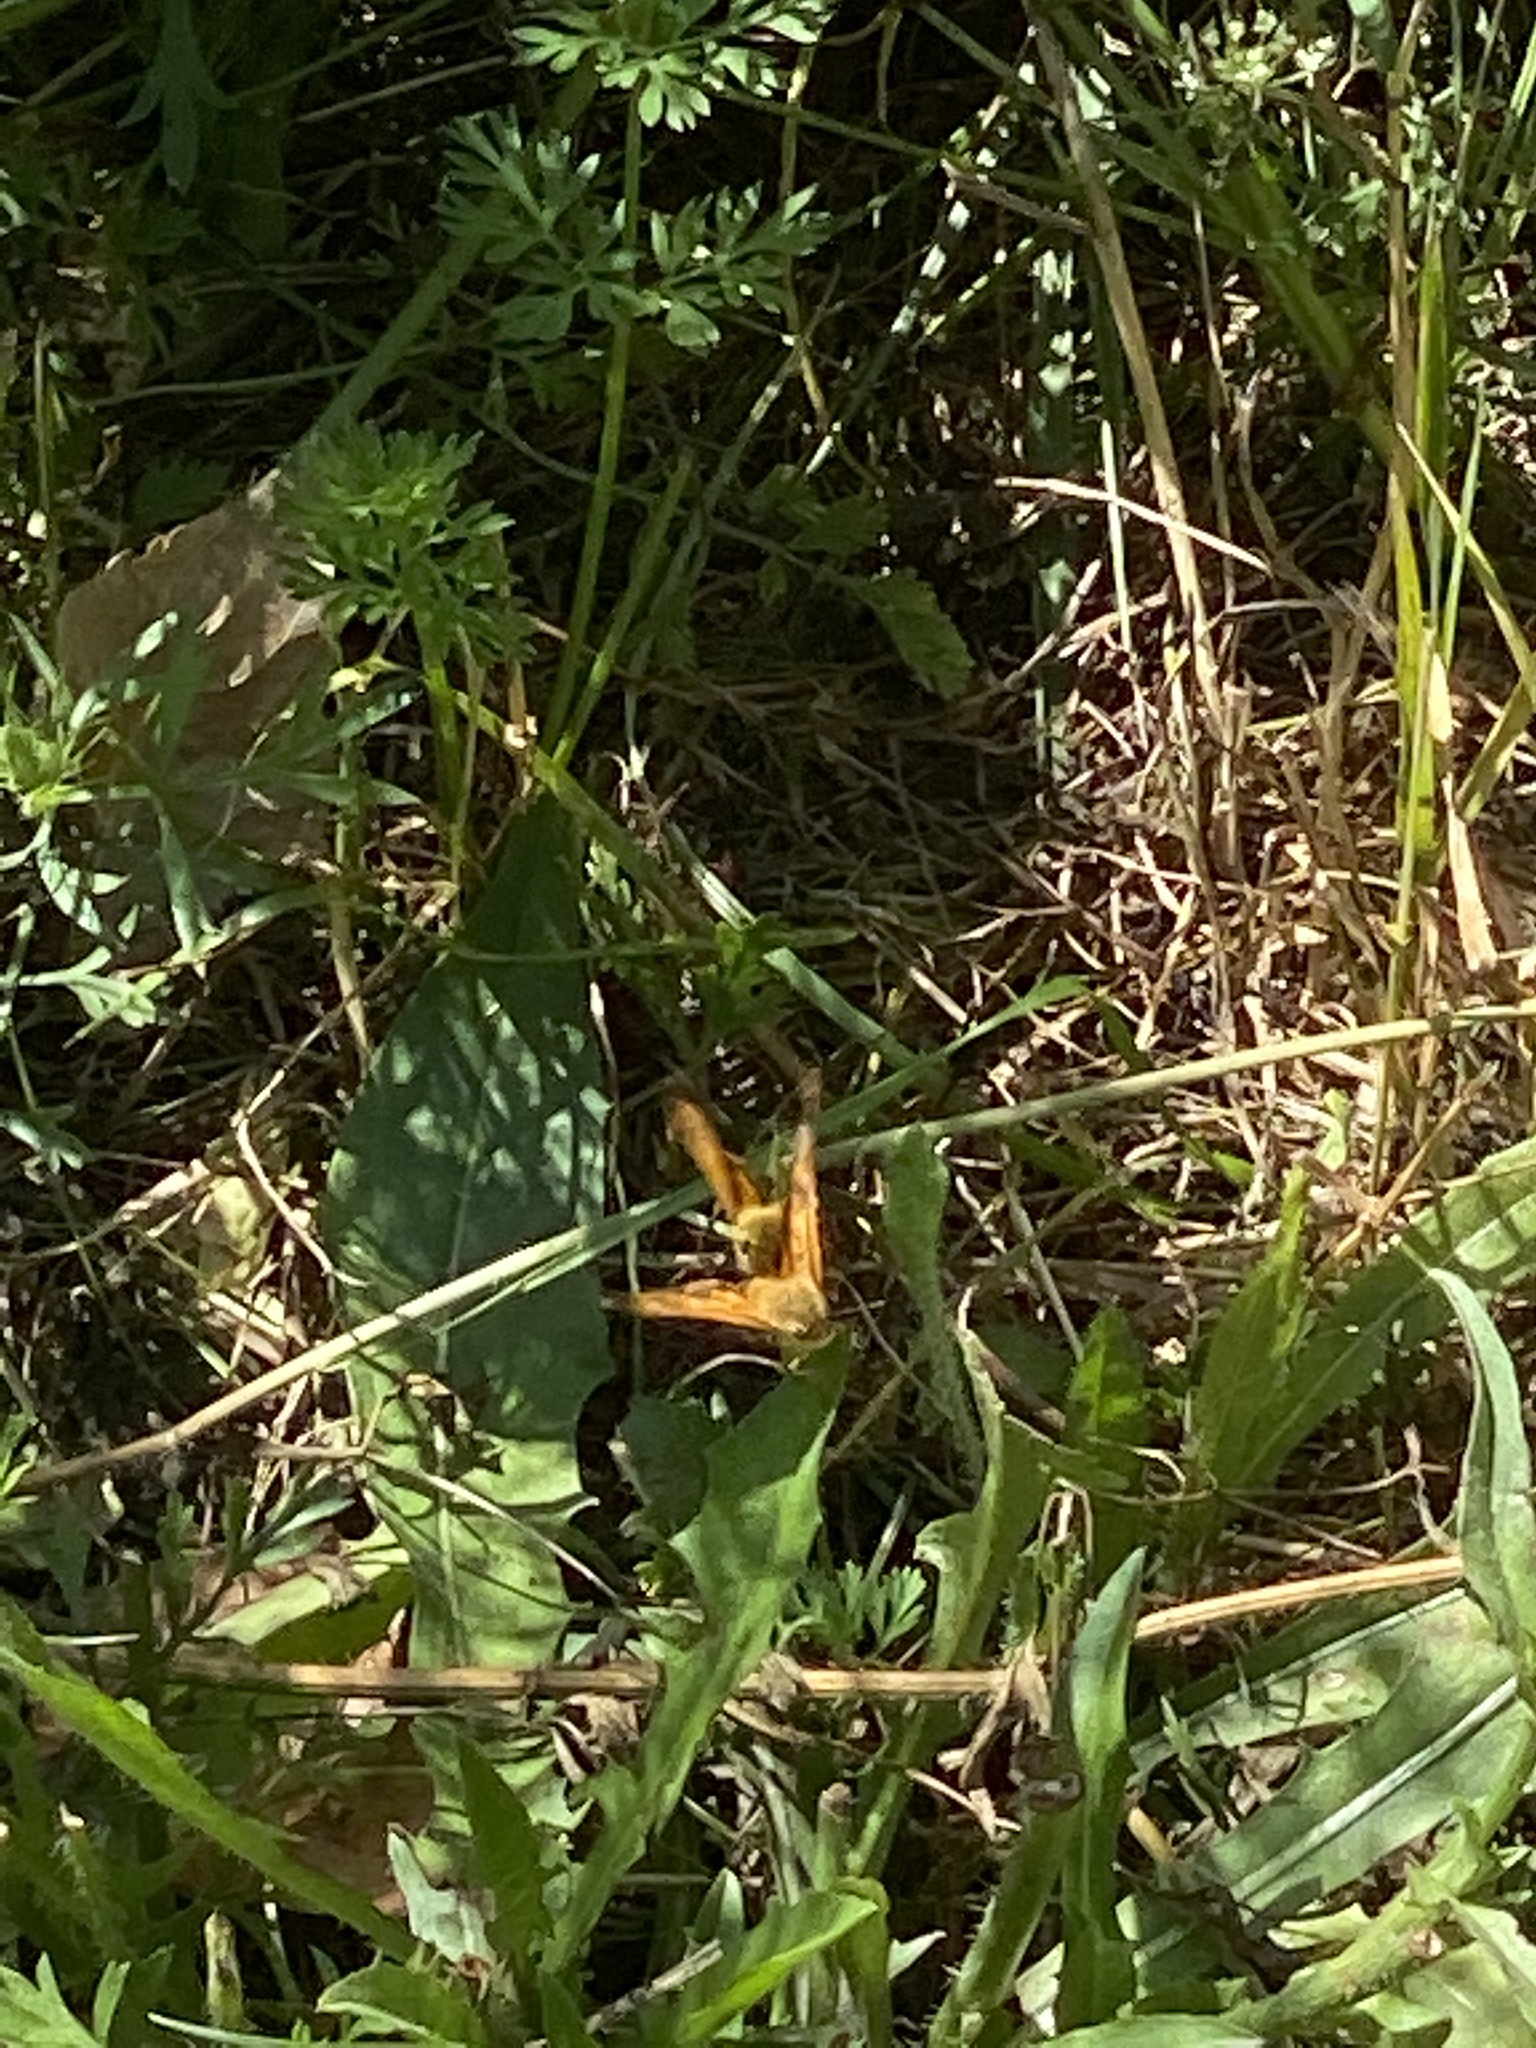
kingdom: Animalia
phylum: Arthropoda
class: Insecta
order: Lepidoptera
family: Hesperiidae
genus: Ochlodes
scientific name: Ochlodes sylvanoides
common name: Woodland skipper
